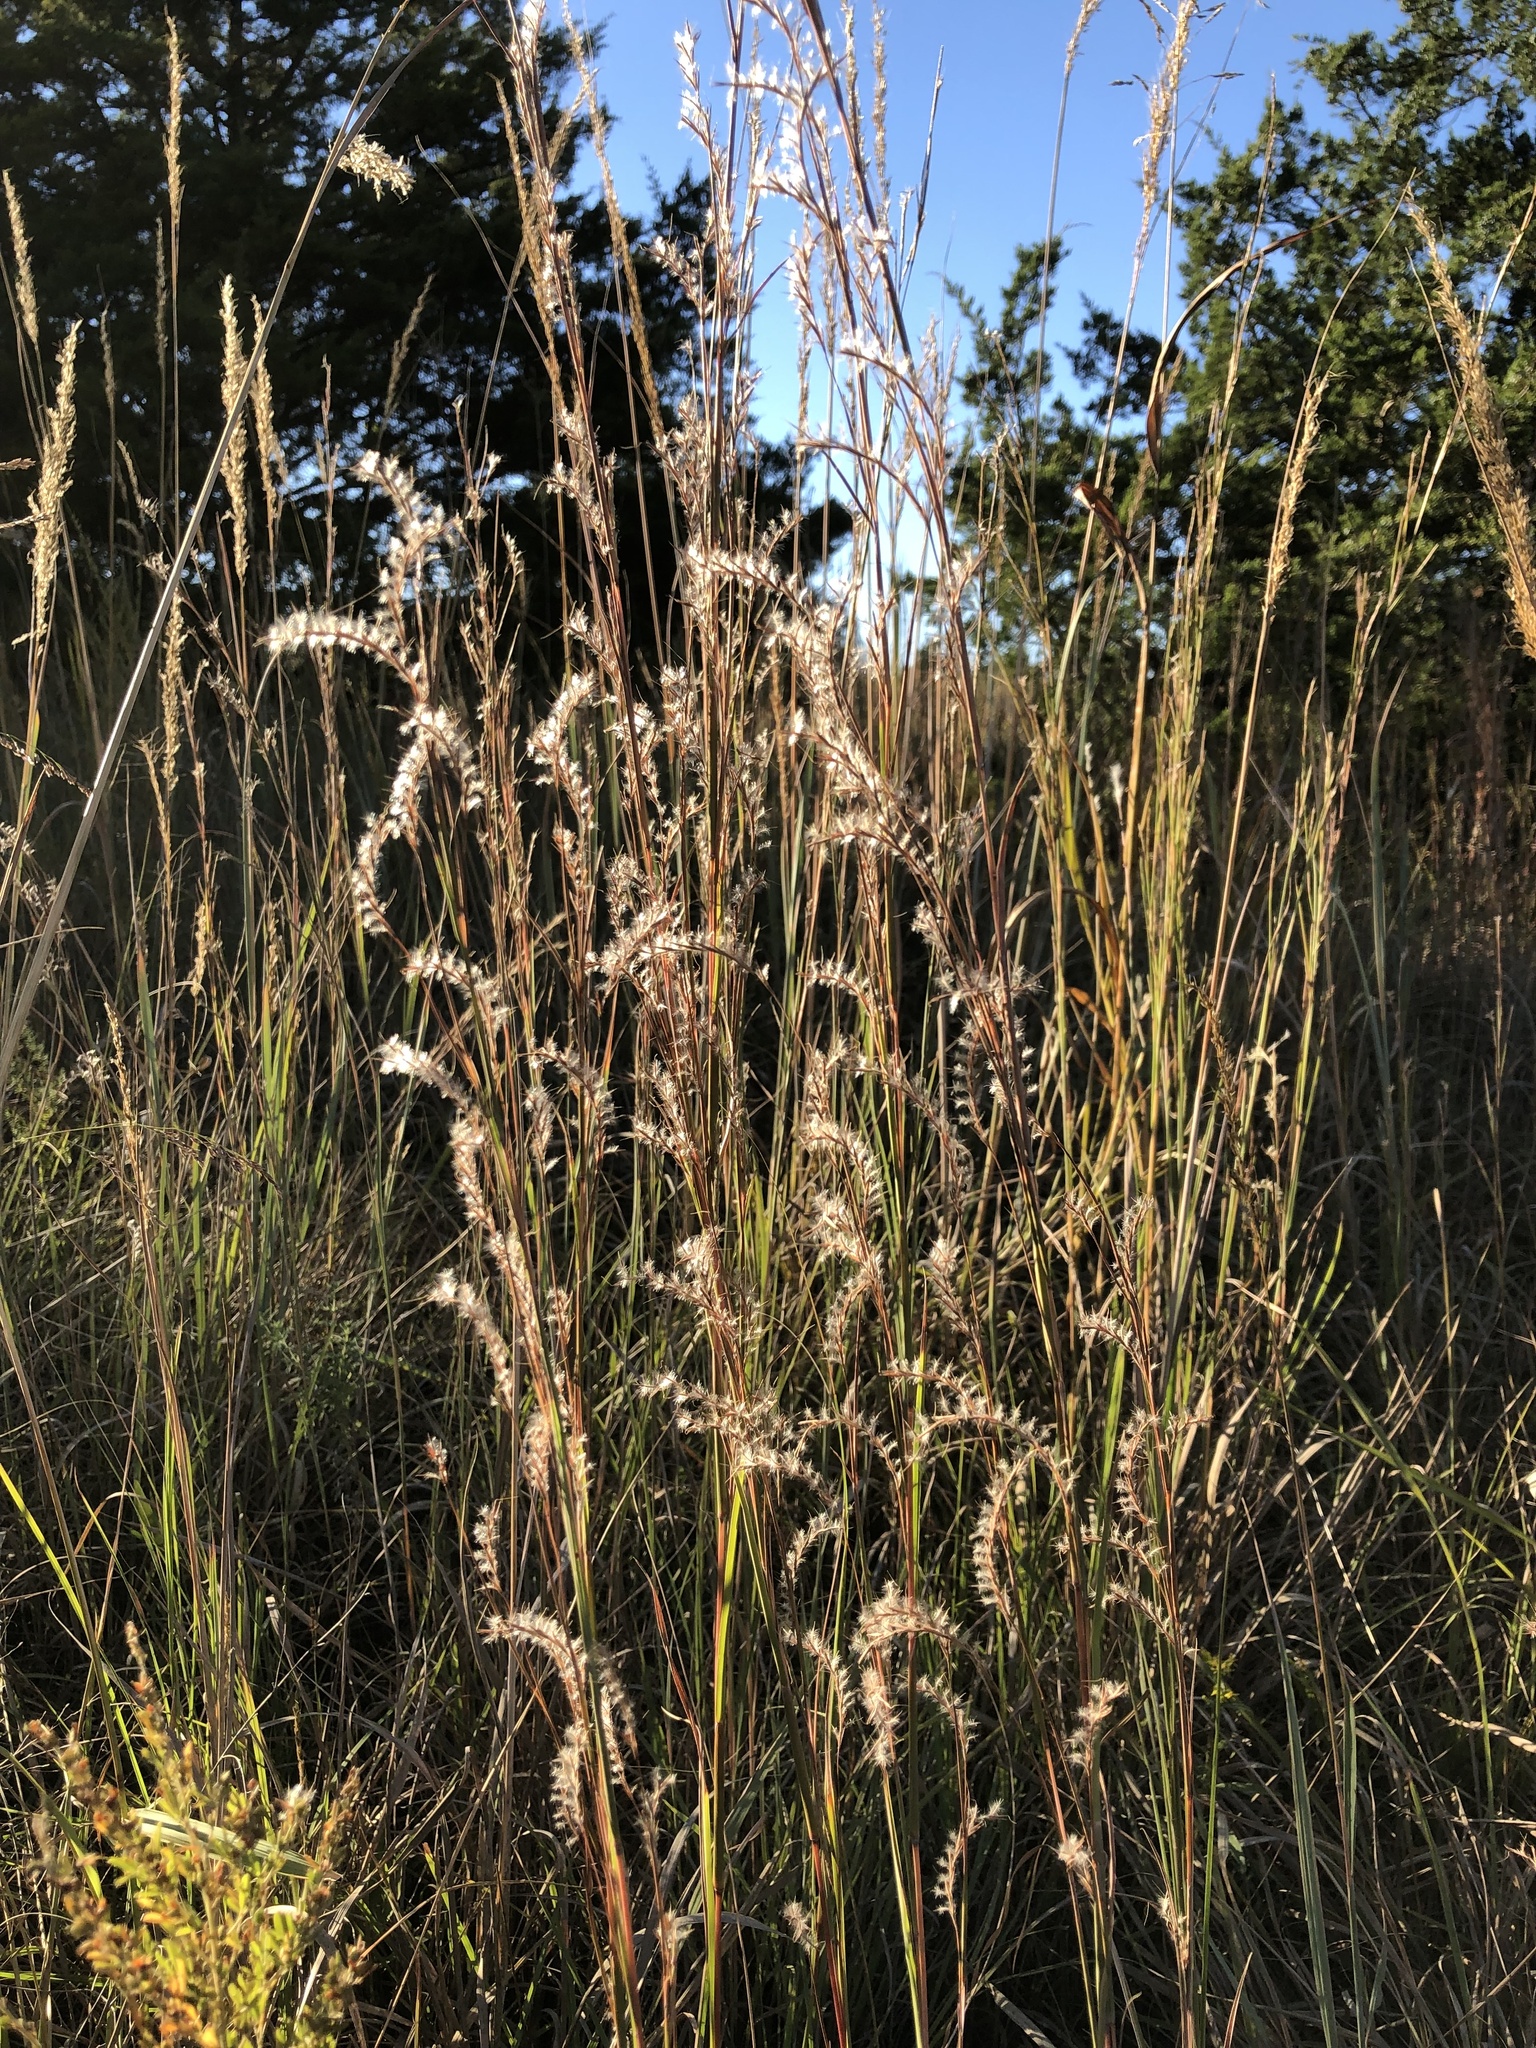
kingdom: Plantae
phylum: Tracheophyta
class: Liliopsida
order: Poales
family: Poaceae
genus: Schizachyrium
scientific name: Schizachyrium scoparium
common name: Little bluestem
